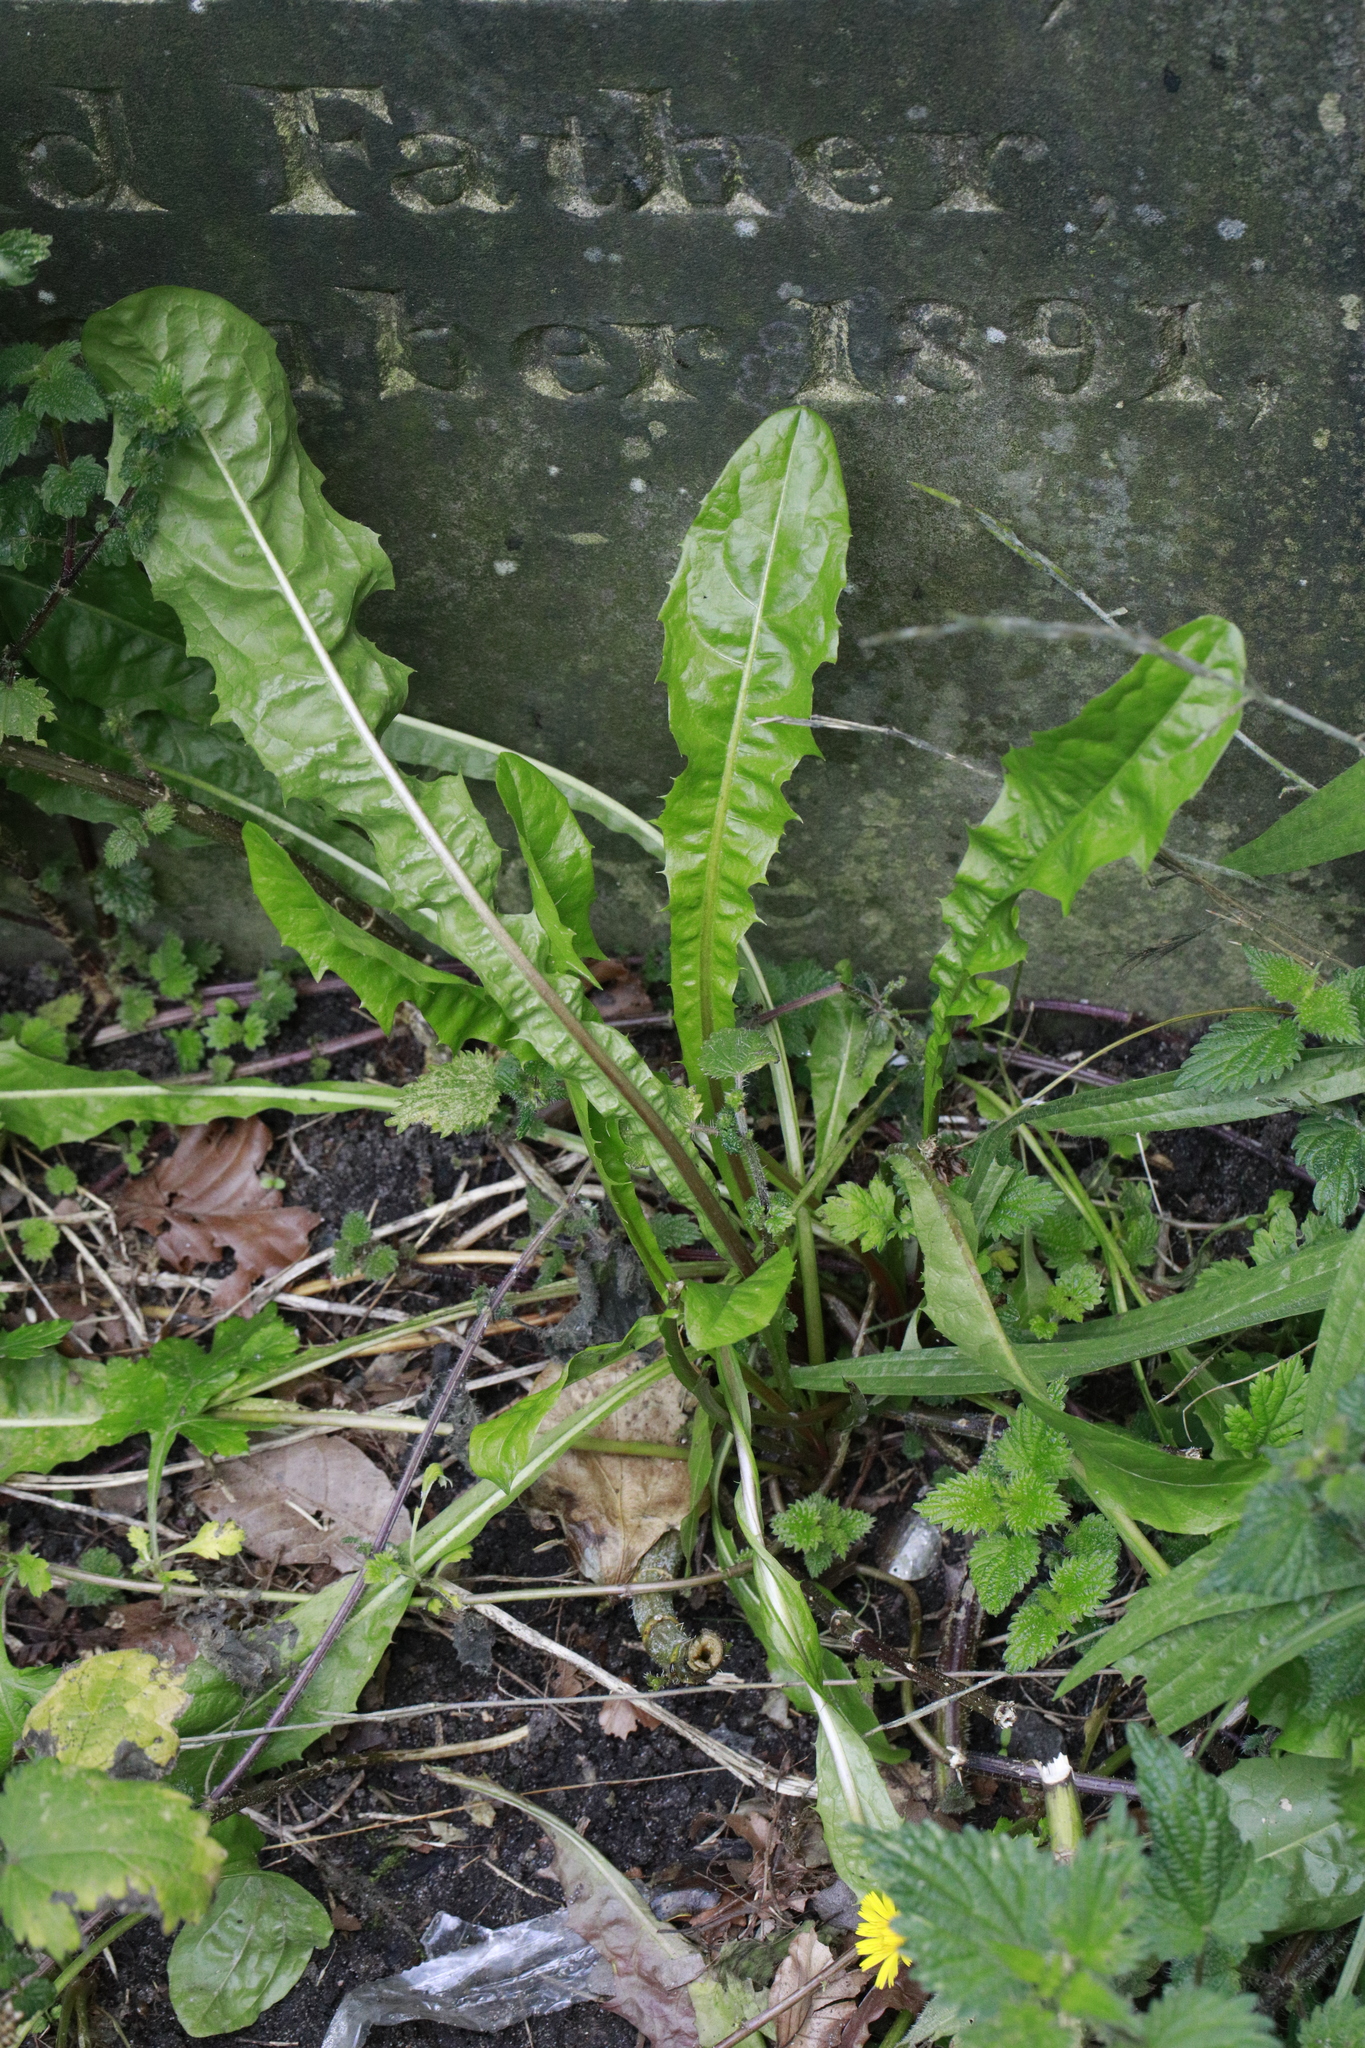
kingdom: Plantae
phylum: Tracheophyta
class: Magnoliopsida
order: Asterales
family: Asteraceae
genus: Taraxacum
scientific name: Taraxacum officinale
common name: Common dandelion
